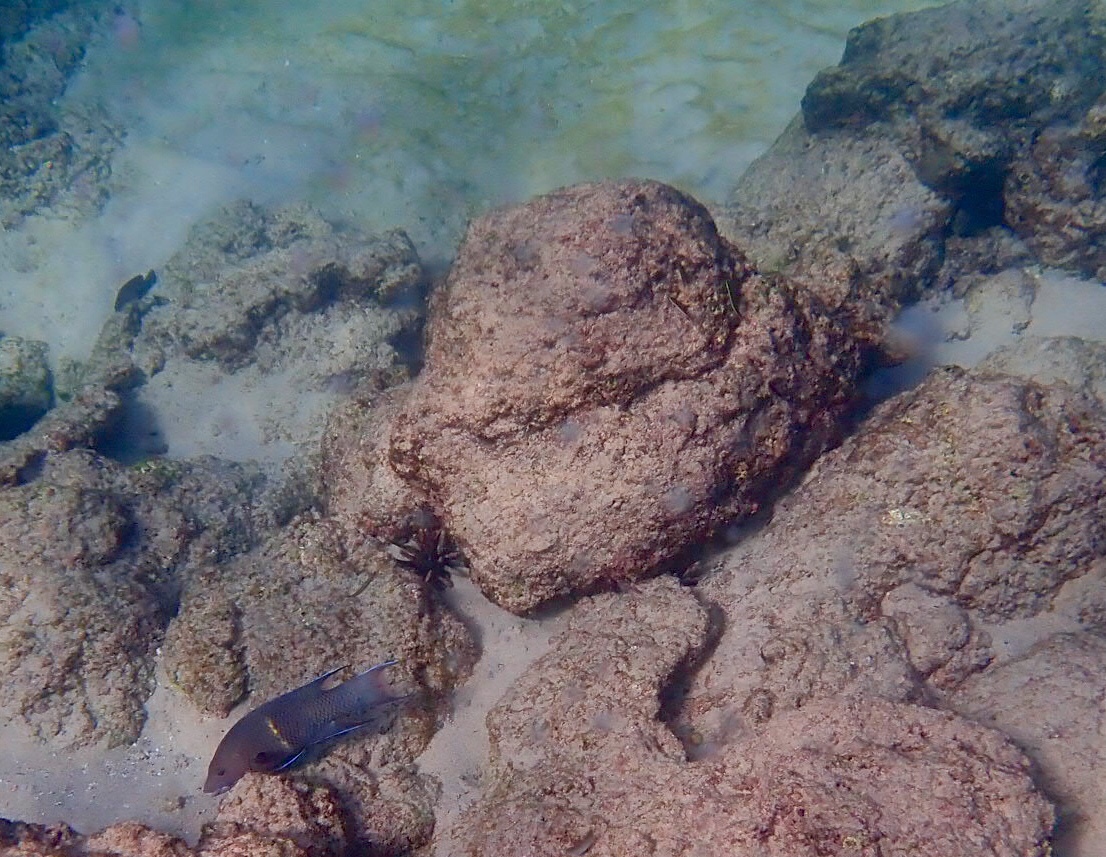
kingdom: Animalia
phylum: Chordata
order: Perciformes
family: Labridae
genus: Bodianus
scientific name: Bodianus diplotaenia
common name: Mexican hogfish
